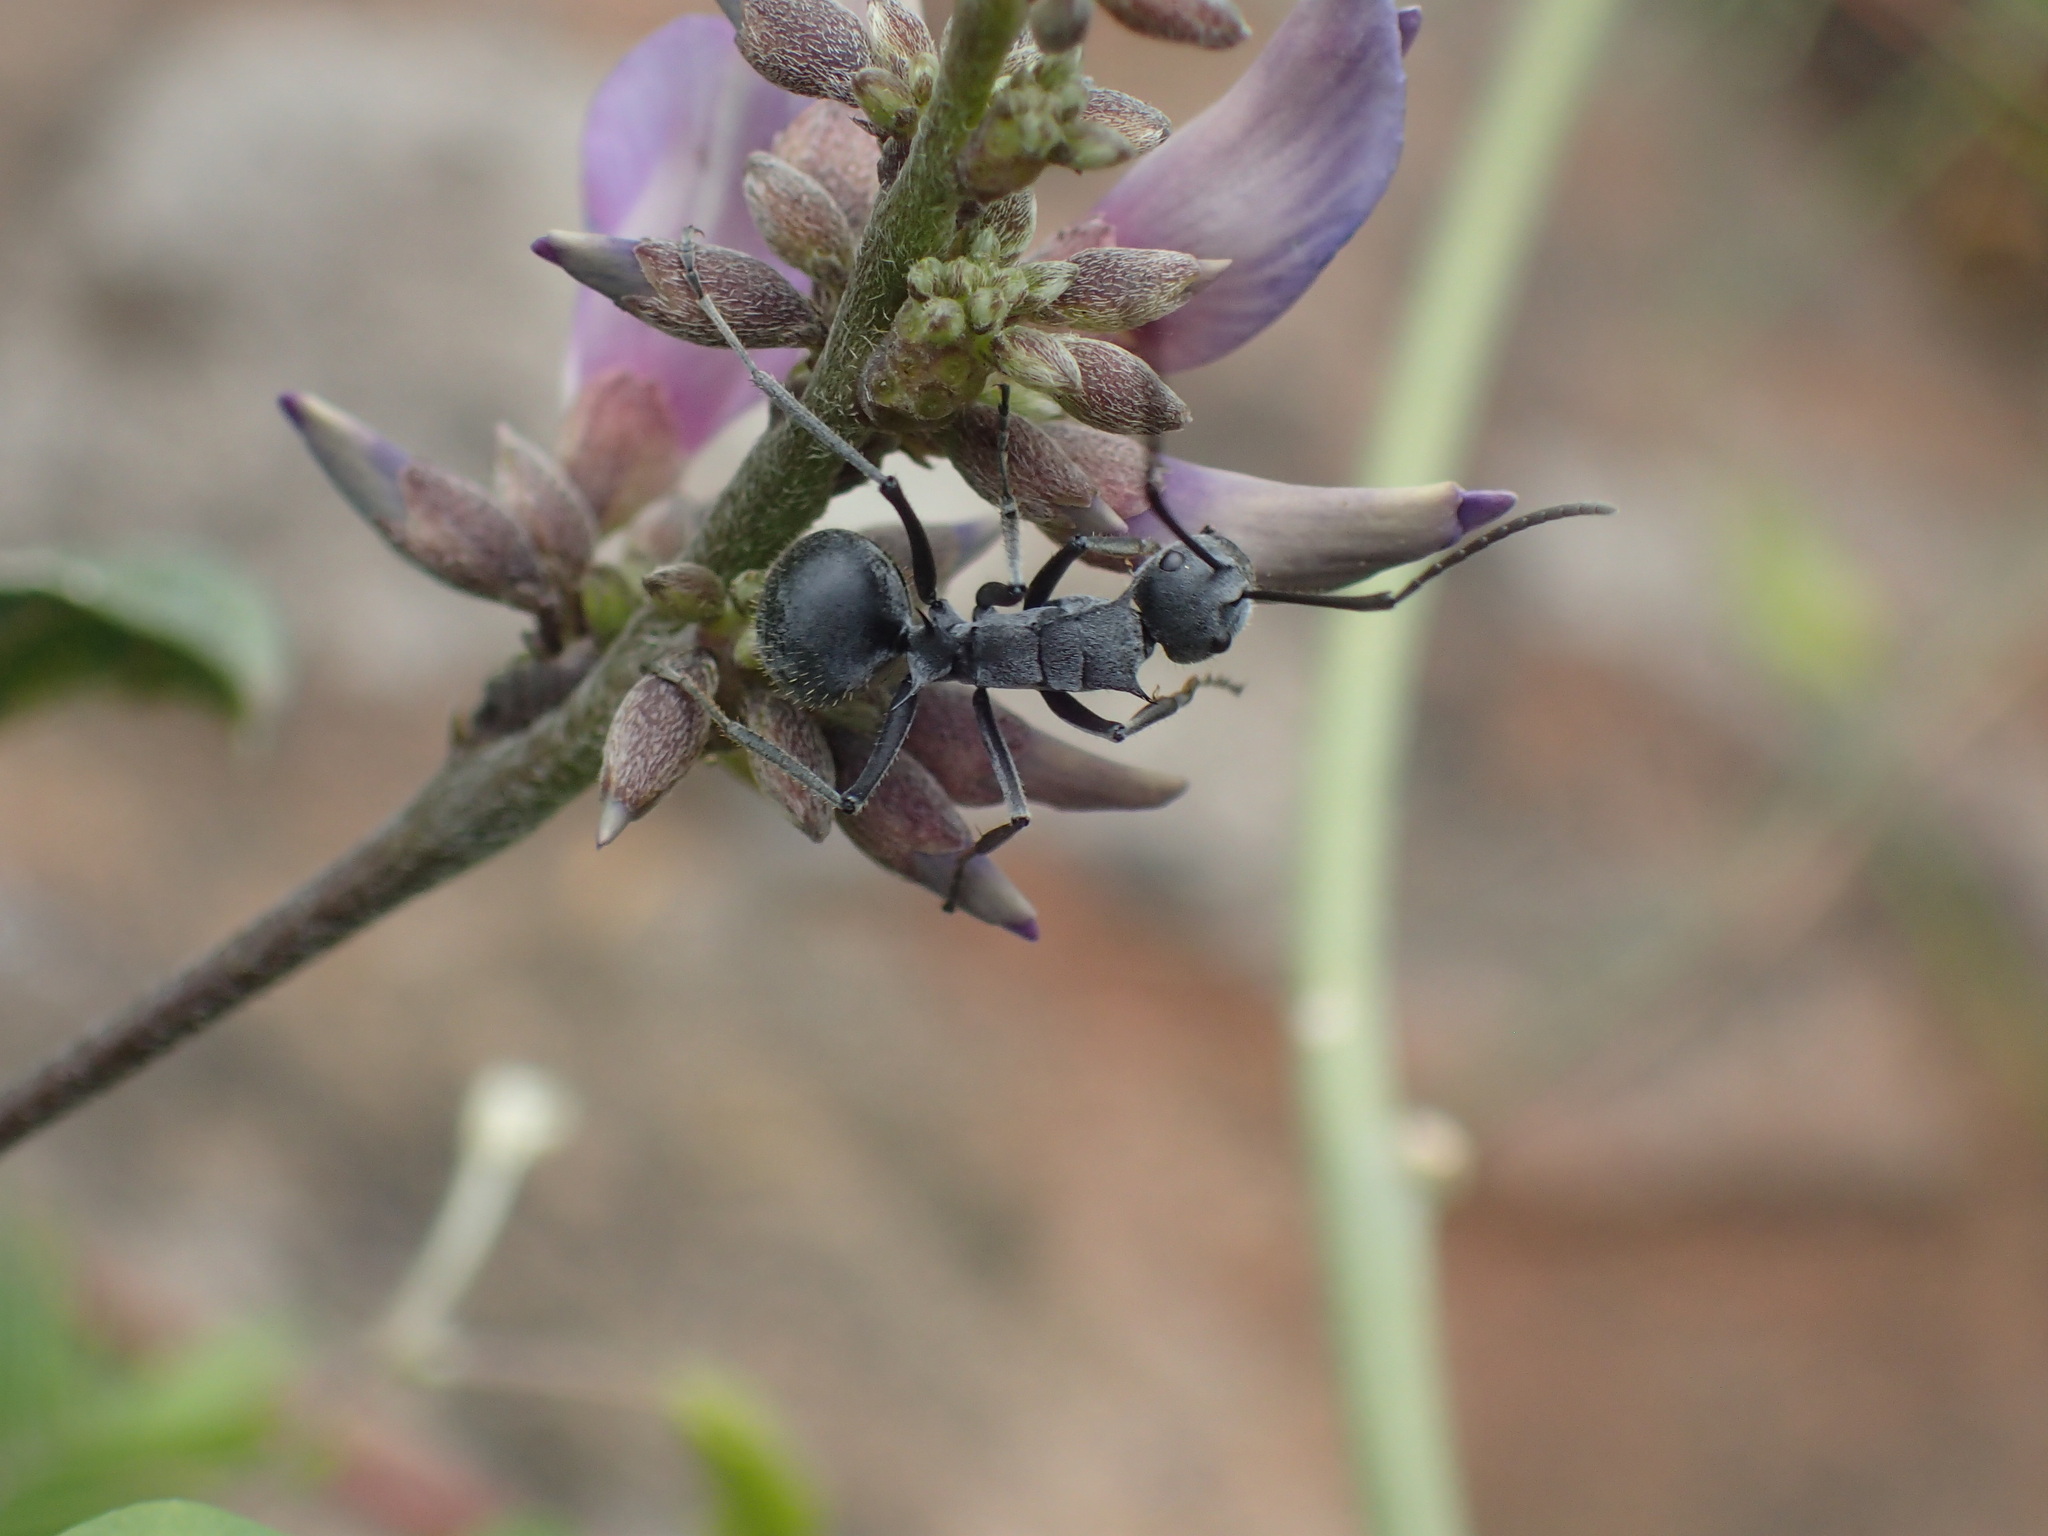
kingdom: Animalia
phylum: Arthropoda
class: Insecta
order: Hymenoptera
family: Formicidae
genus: Polyrhachis
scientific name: Polyrhachis schistacea
